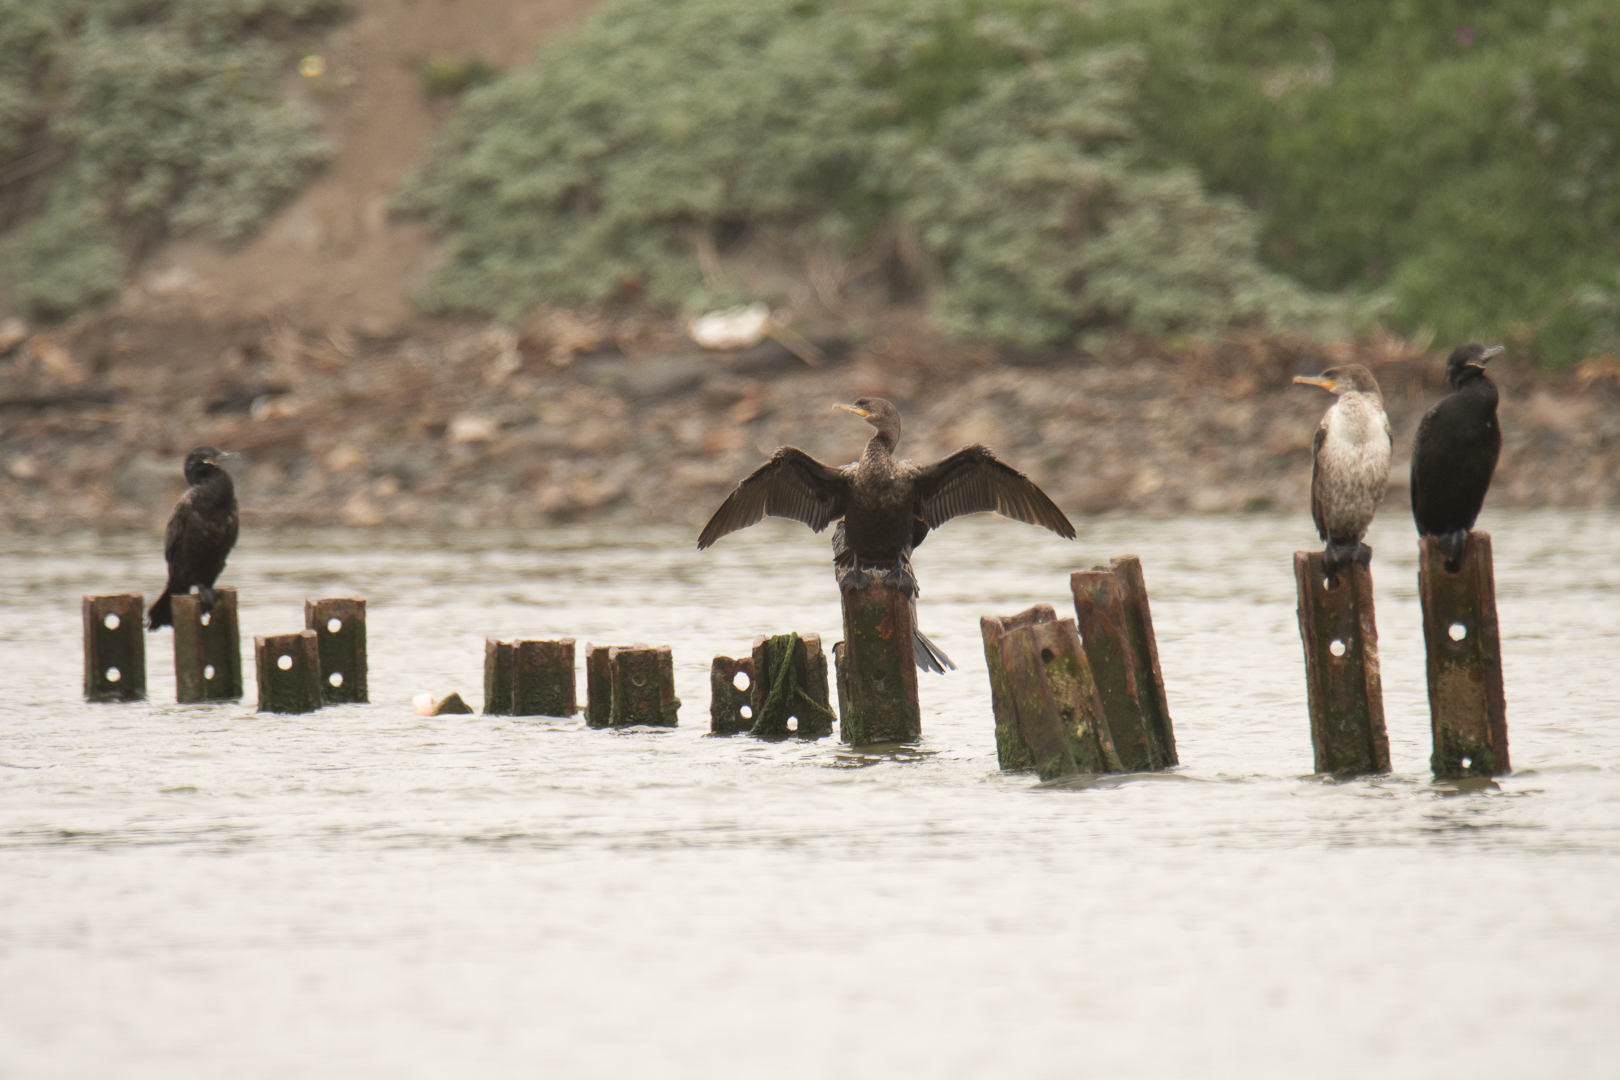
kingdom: Animalia
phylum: Chordata
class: Aves
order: Suliformes
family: Phalacrocoracidae
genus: Phalacrocorax
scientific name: Phalacrocorax brasilianus
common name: Neotropic cormorant
